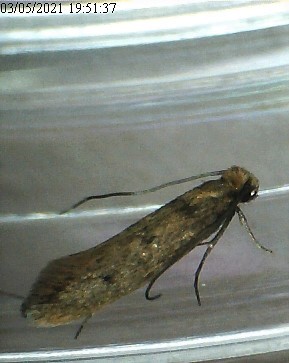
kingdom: Animalia
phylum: Arthropoda
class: Insecta
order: Lepidoptera
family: Tineidae
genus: Tinea
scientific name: Tinea
